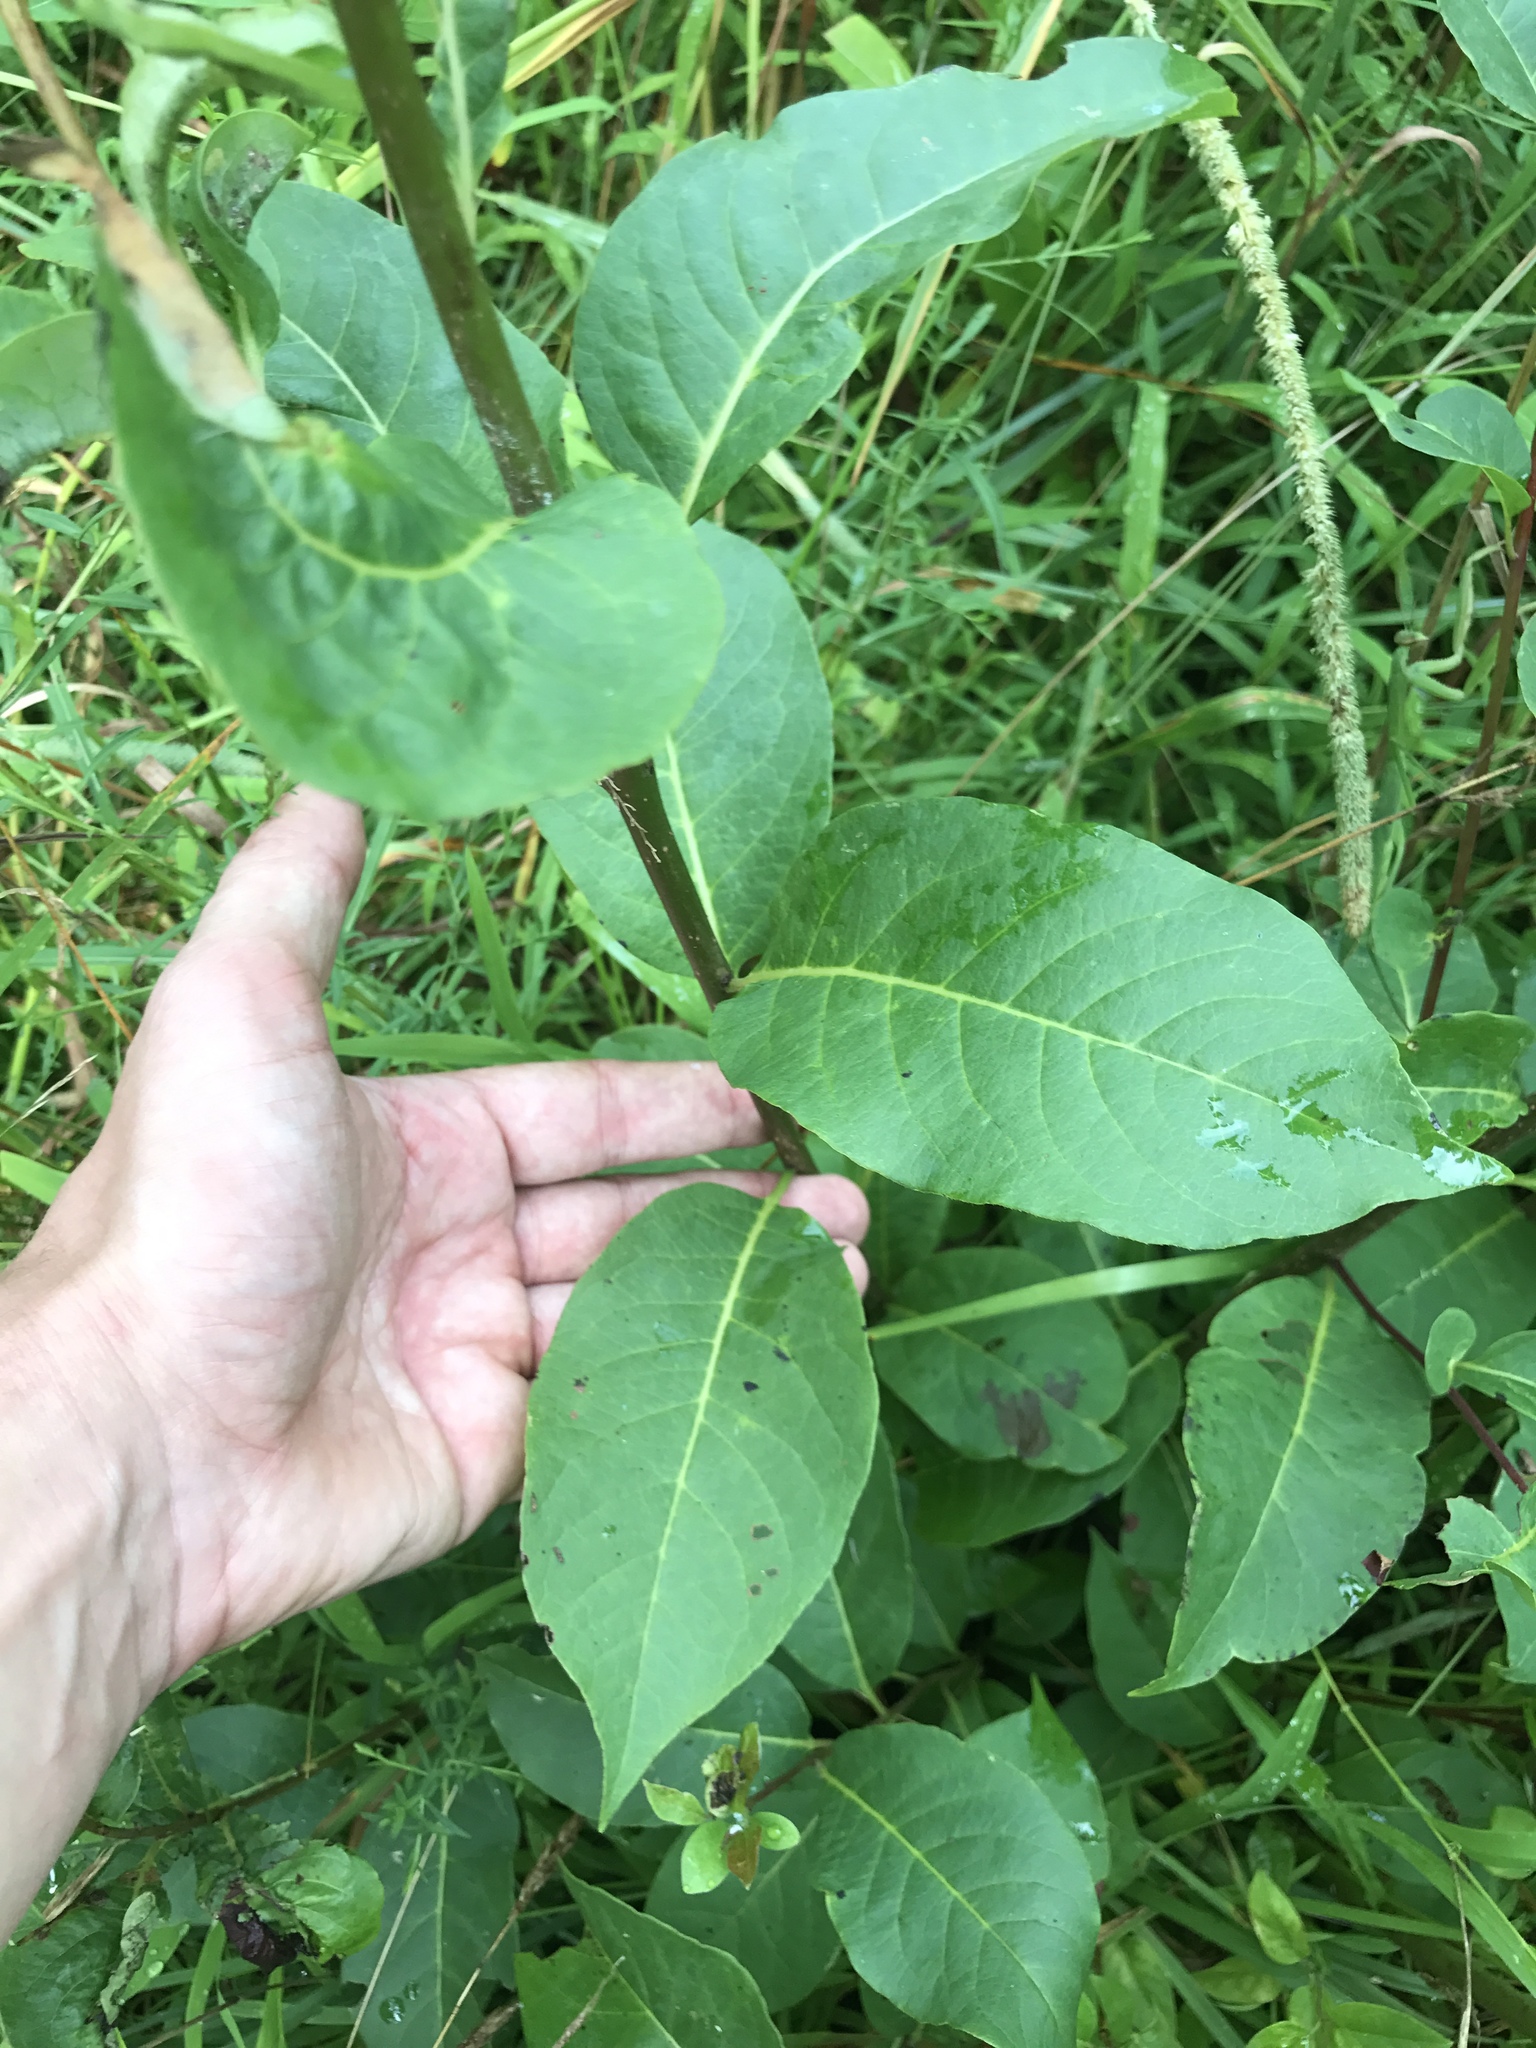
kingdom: Plantae
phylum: Tracheophyta
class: Magnoliopsida
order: Ericales
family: Ebenaceae
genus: Diospyros
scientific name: Diospyros virginiana
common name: Persimmon
